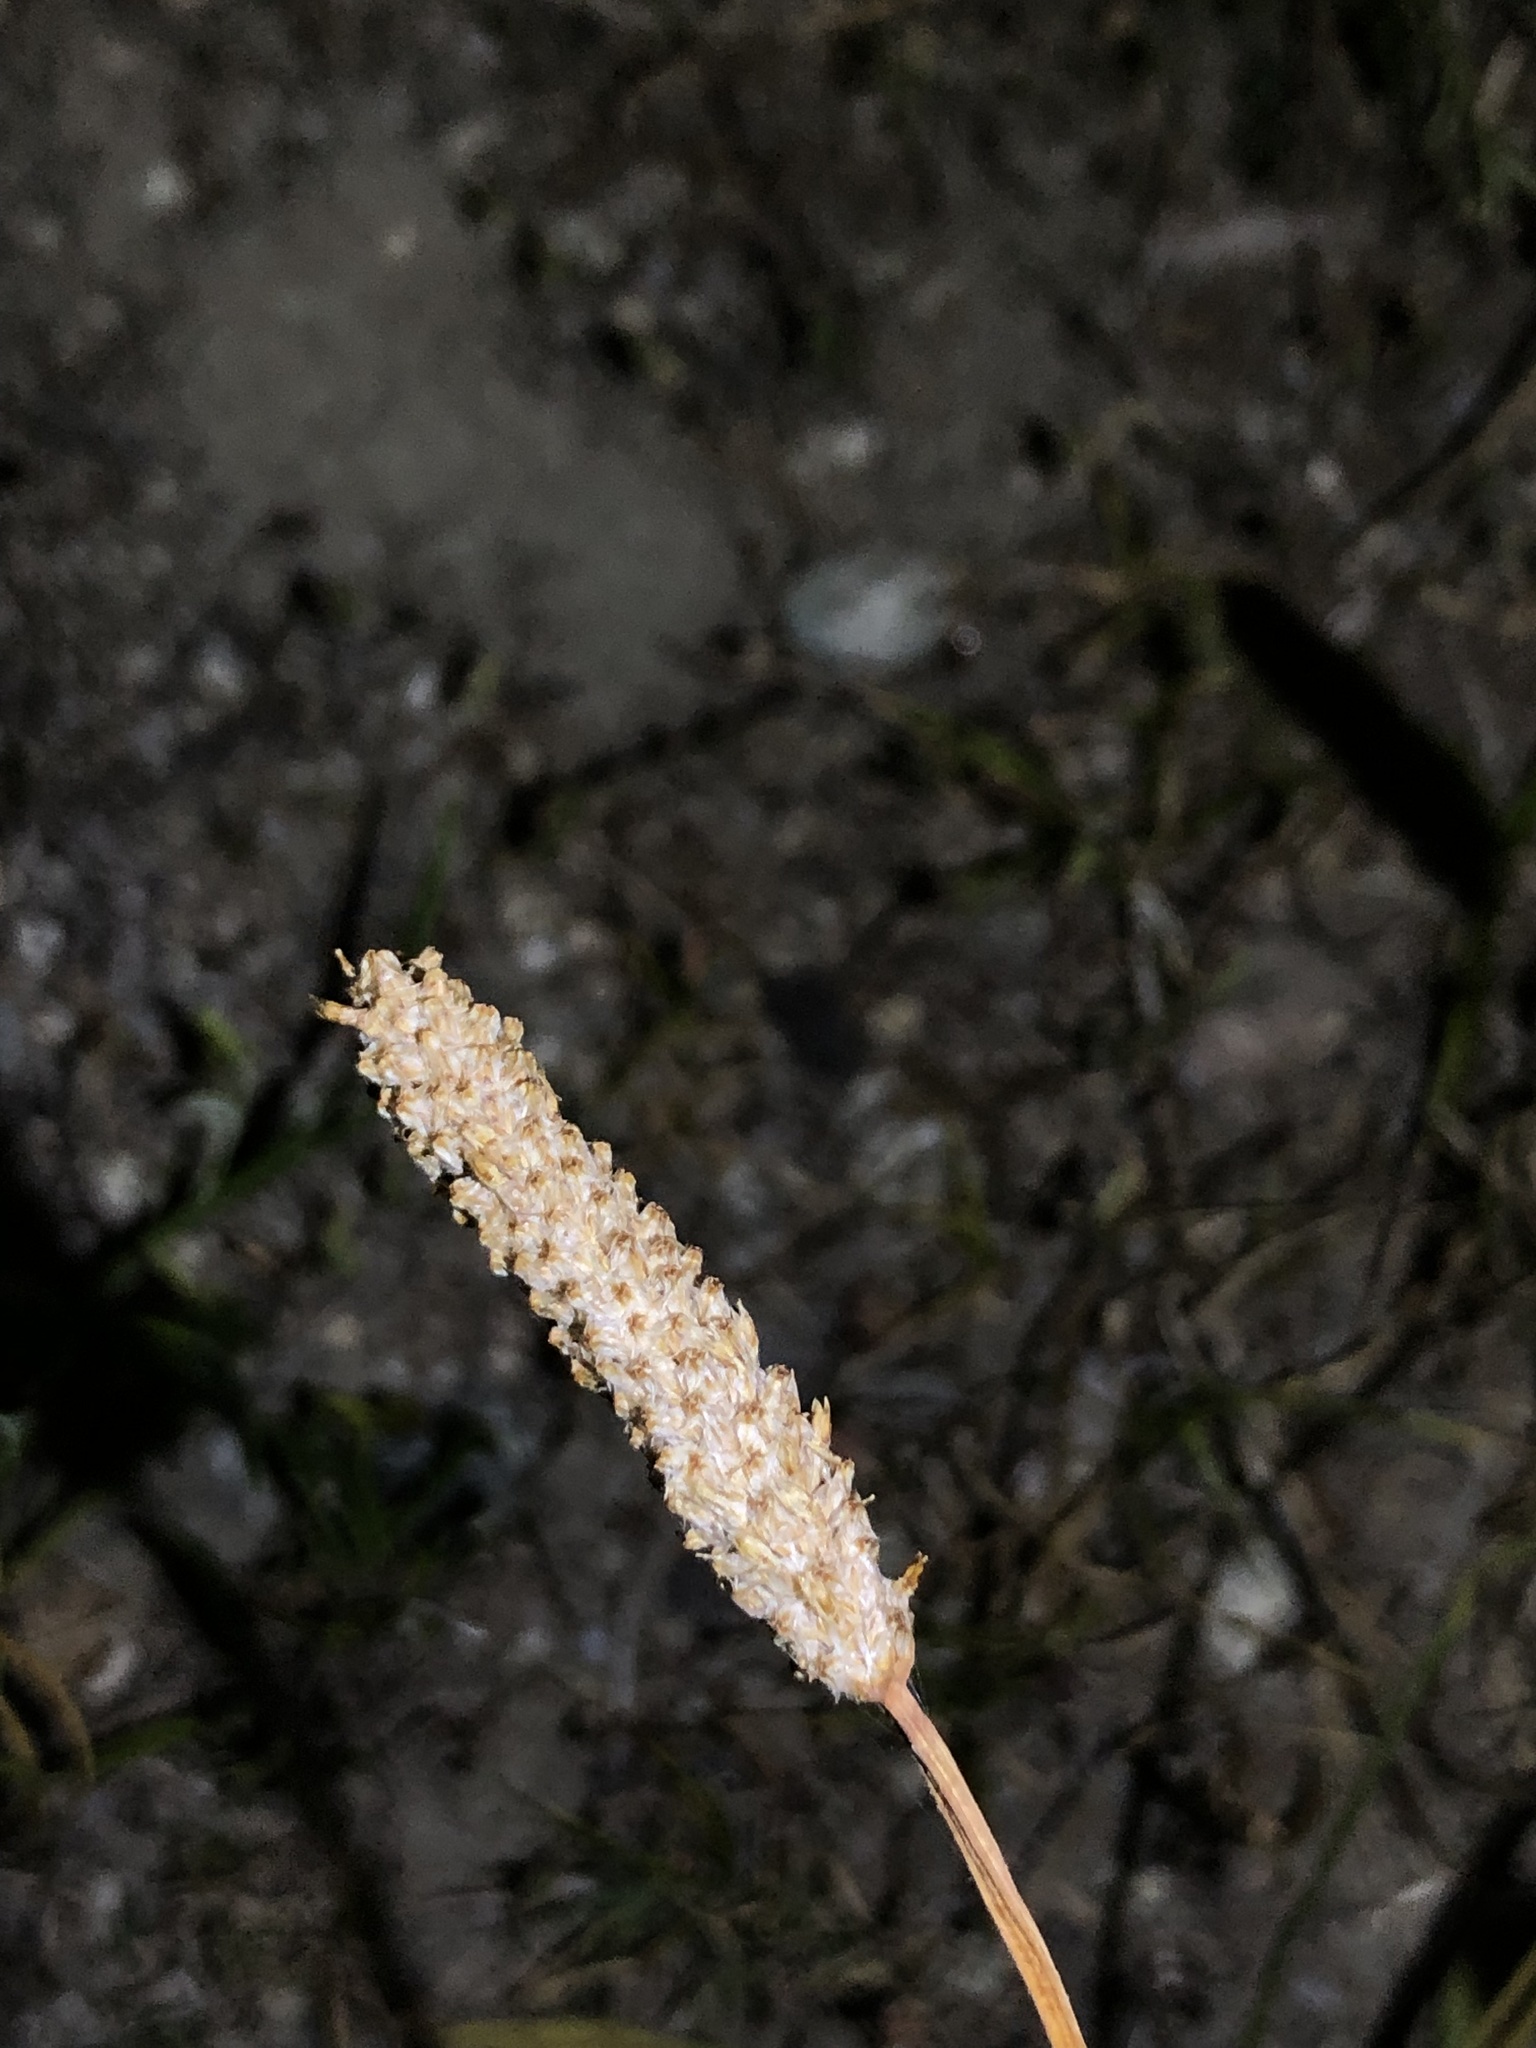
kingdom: Plantae
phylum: Tracheophyta
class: Magnoliopsida
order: Lamiales
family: Plantaginaceae
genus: Plantago
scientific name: Plantago ovata
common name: Blond plantain
